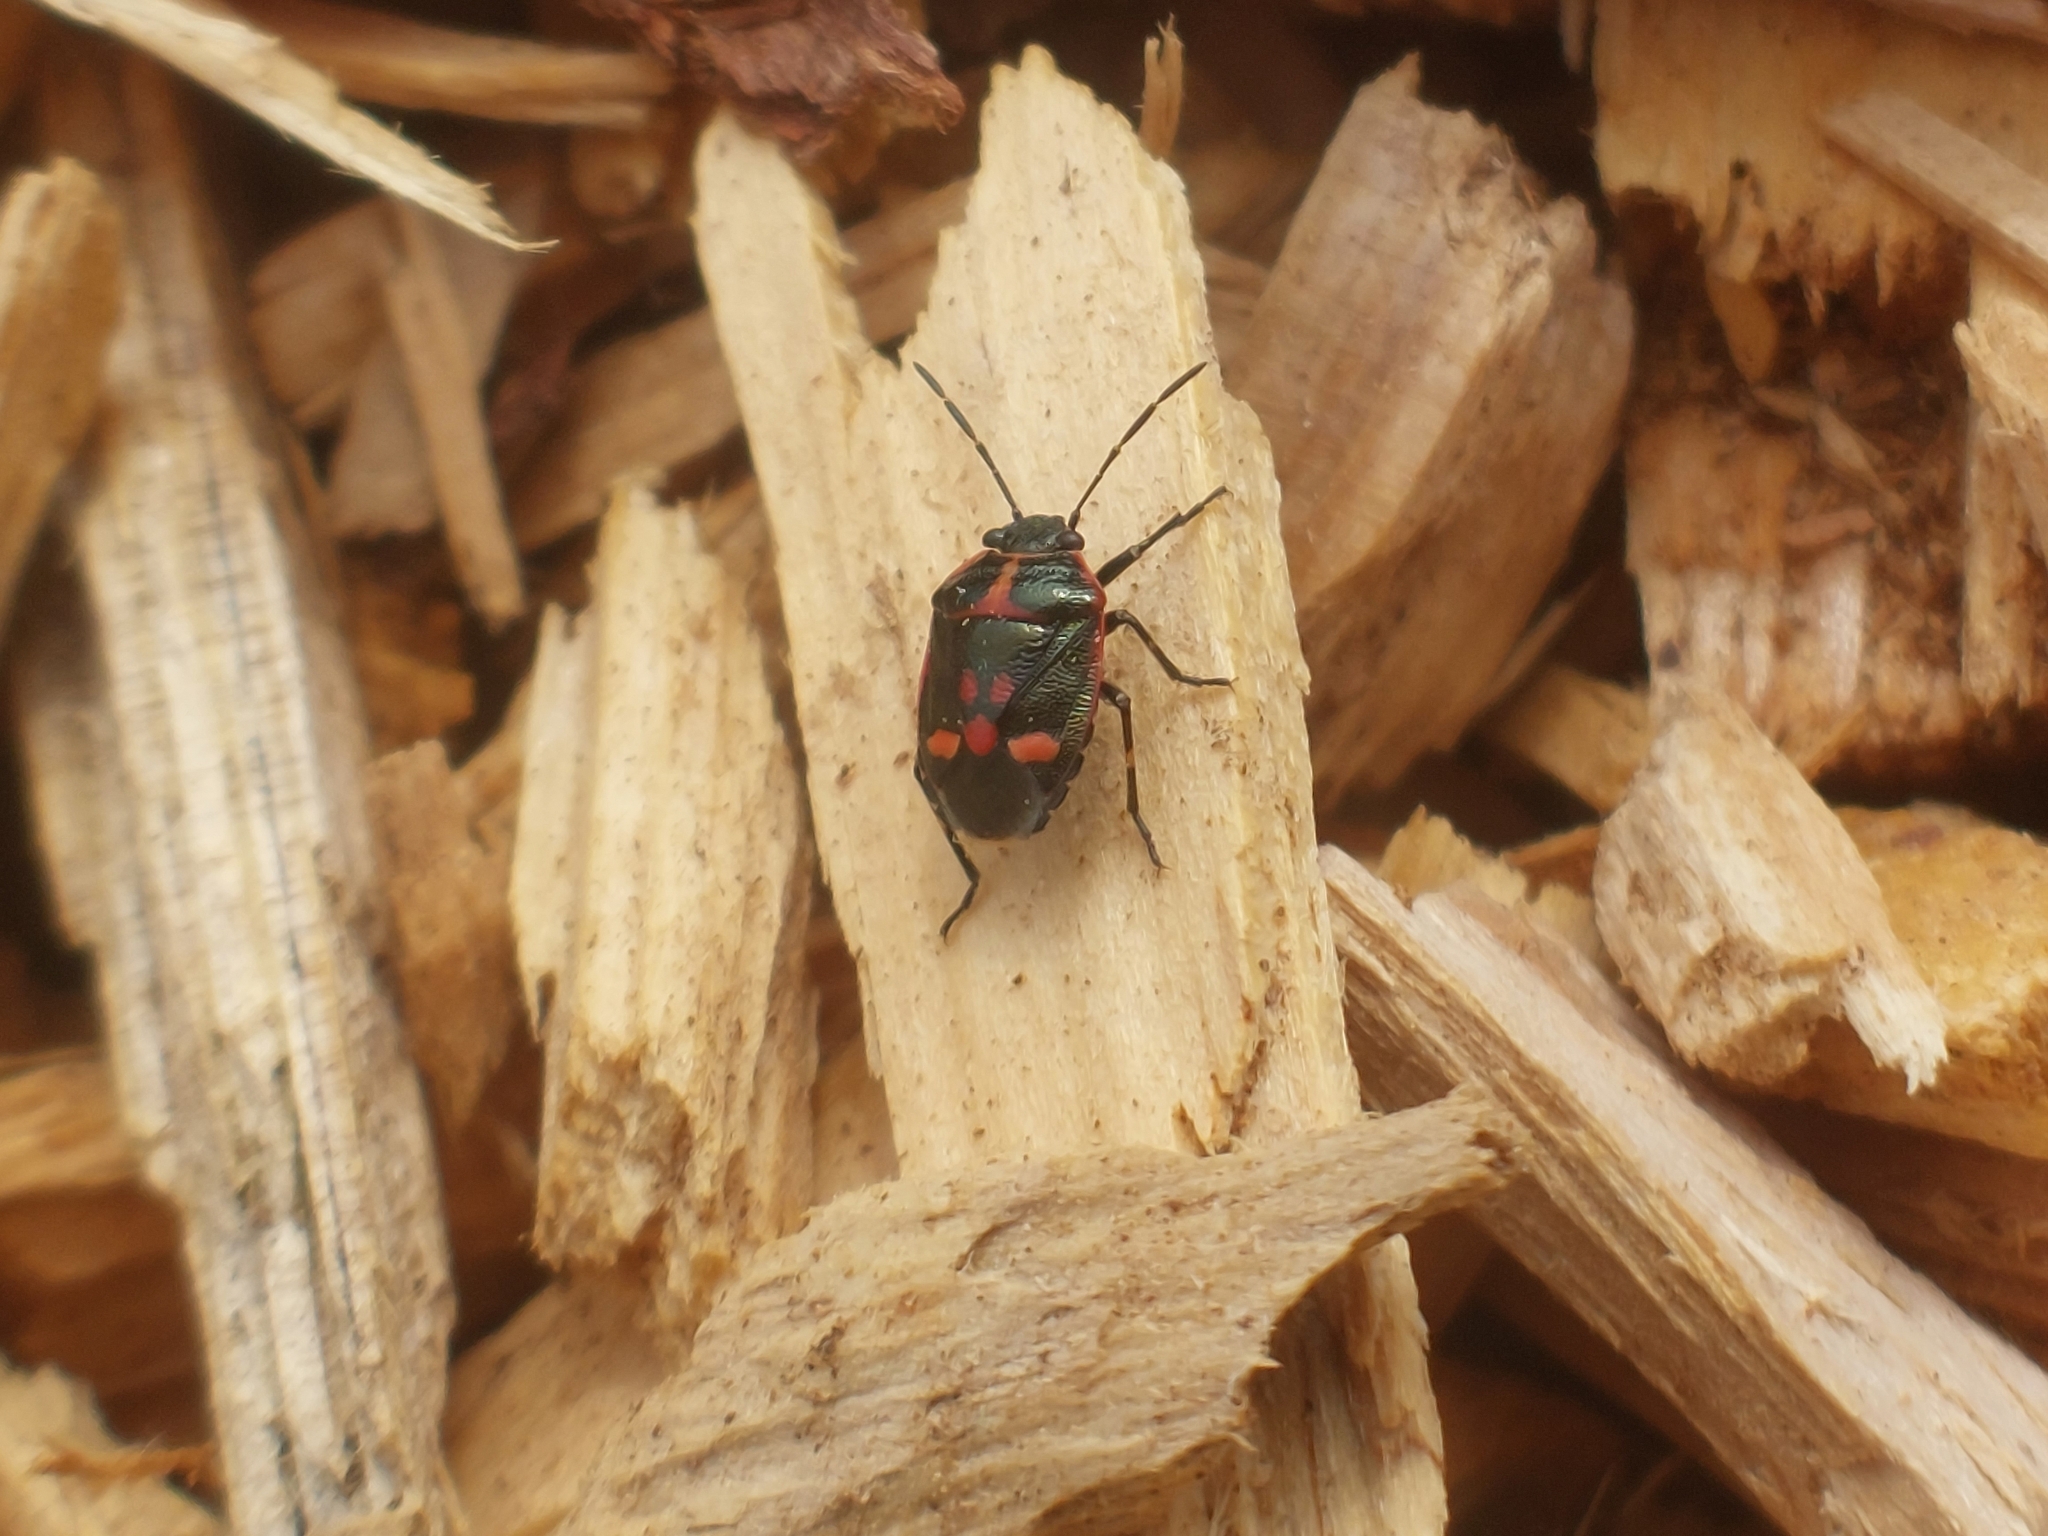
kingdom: Animalia
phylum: Arthropoda
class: Insecta
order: Hemiptera
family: Pentatomidae
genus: Eurydema
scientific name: Eurydema oleracea
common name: Cabbage bug
